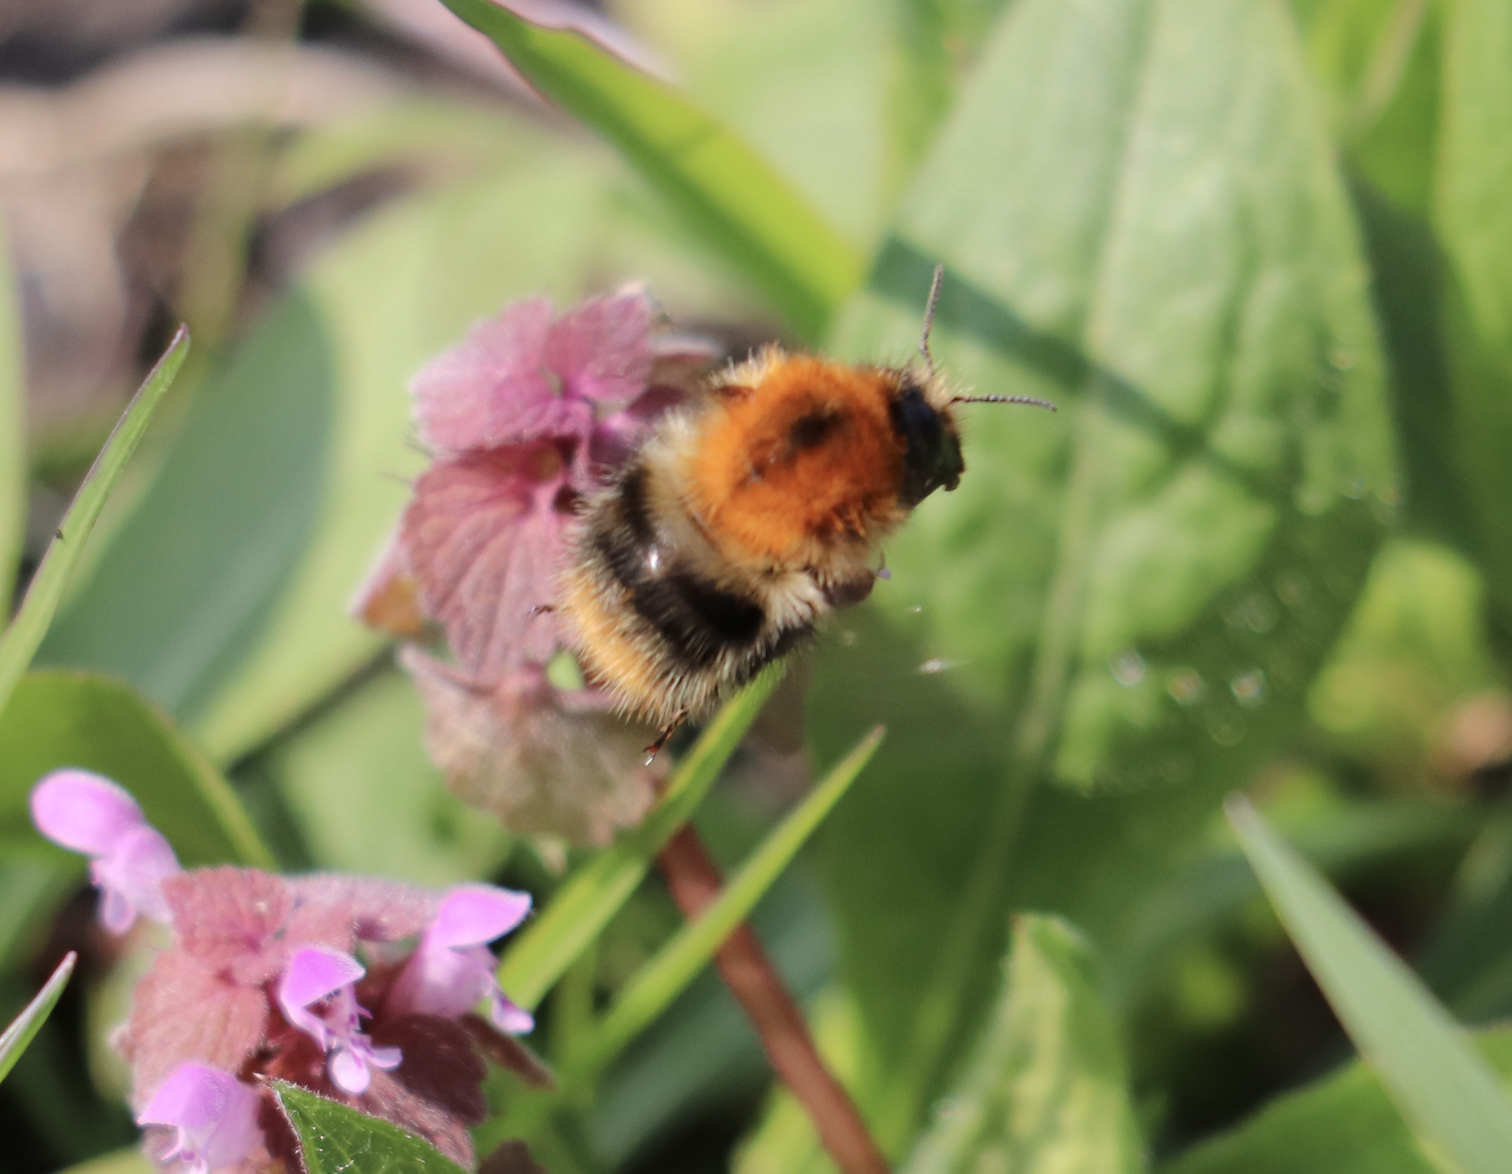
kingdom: Animalia
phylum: Arthropoda
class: Insecta
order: Hymenoptera
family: Apidae
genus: Bombus
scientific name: Bombus pascuorum
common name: Common carder bee
